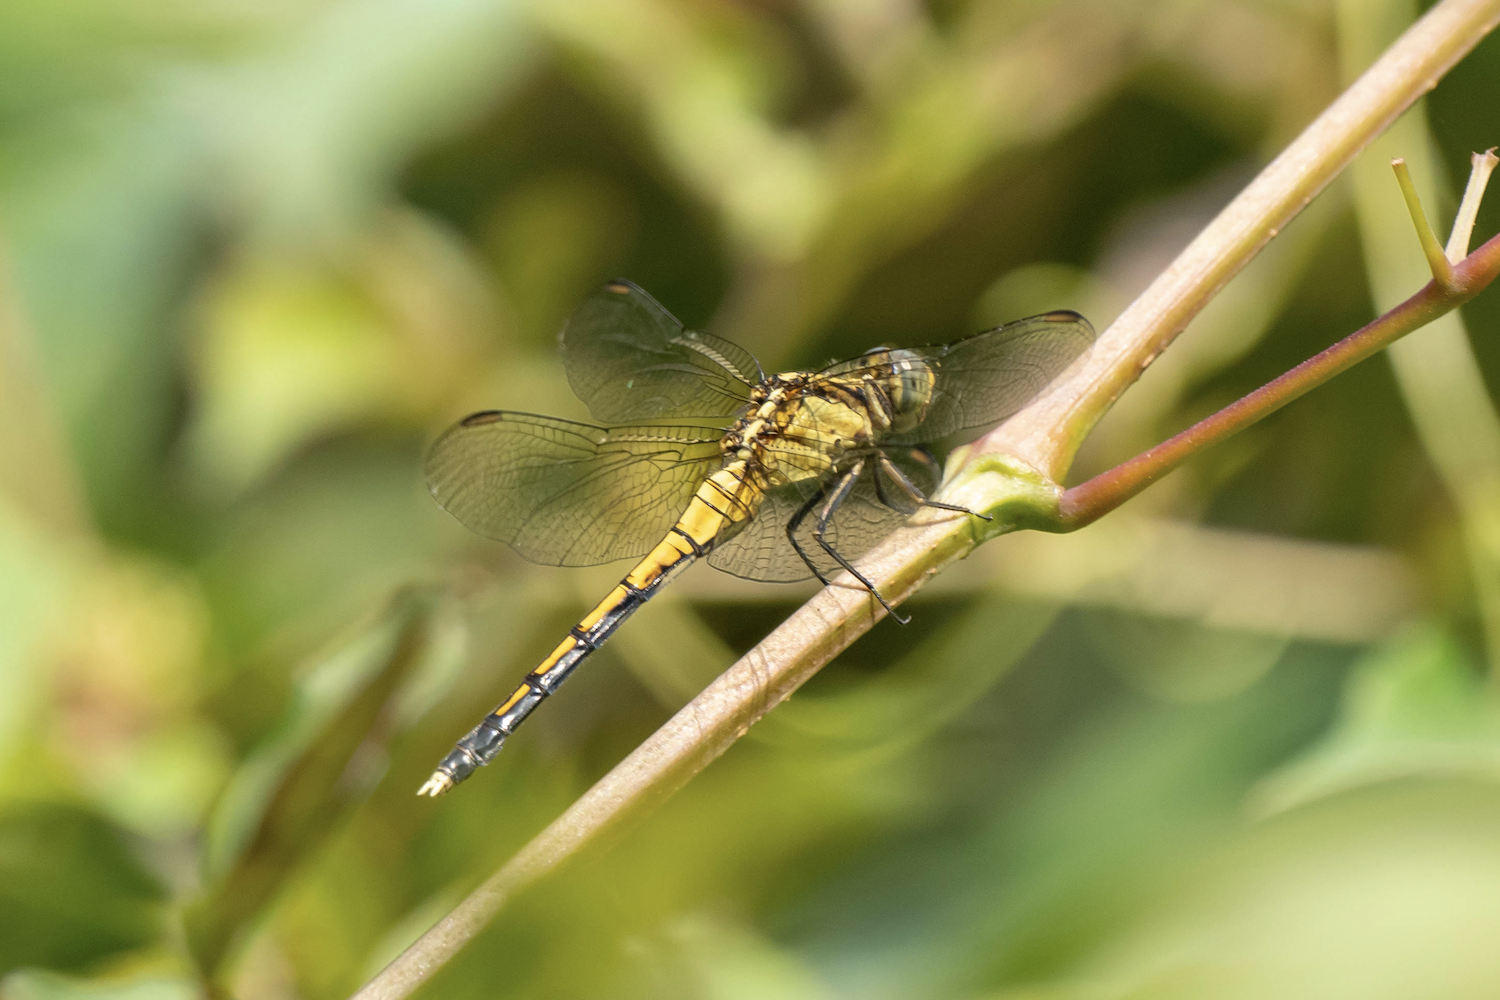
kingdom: Animalia
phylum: Arthropoda
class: Insecta
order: Odonata
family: Libellulidae
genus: Orthetrum
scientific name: Orthetrum luzonicum
